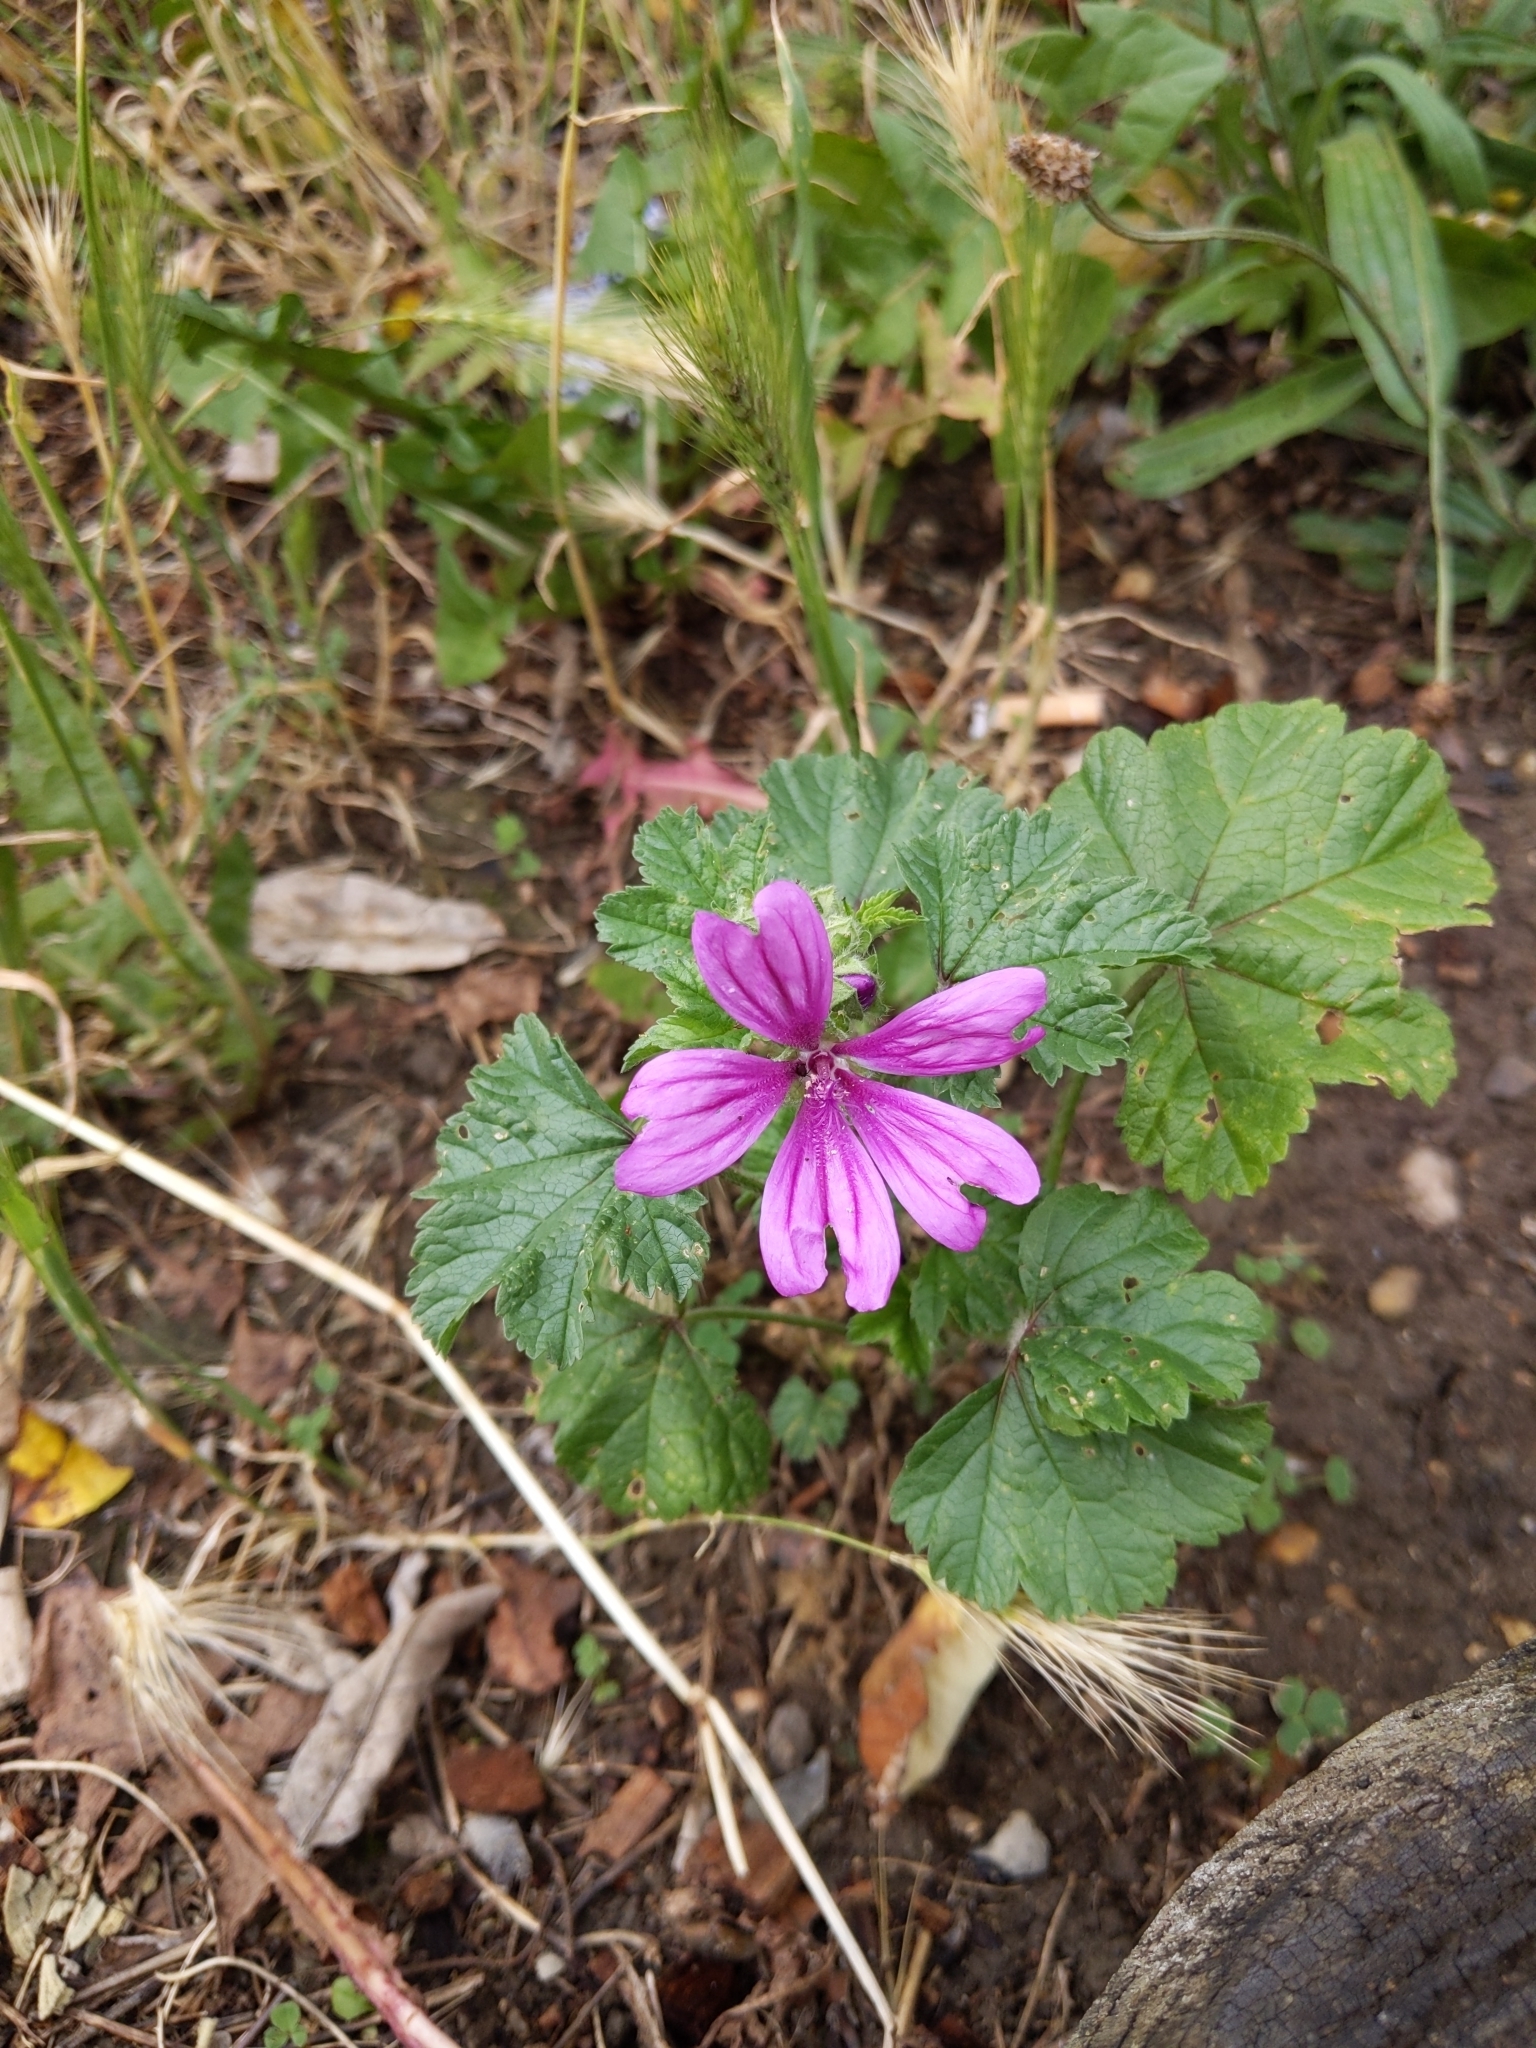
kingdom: Plantae
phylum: Tracheophyta
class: Magnoliopsida
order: Malvales
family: Malvaceae
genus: Malva
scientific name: Malva sylvestris
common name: Common mallow
